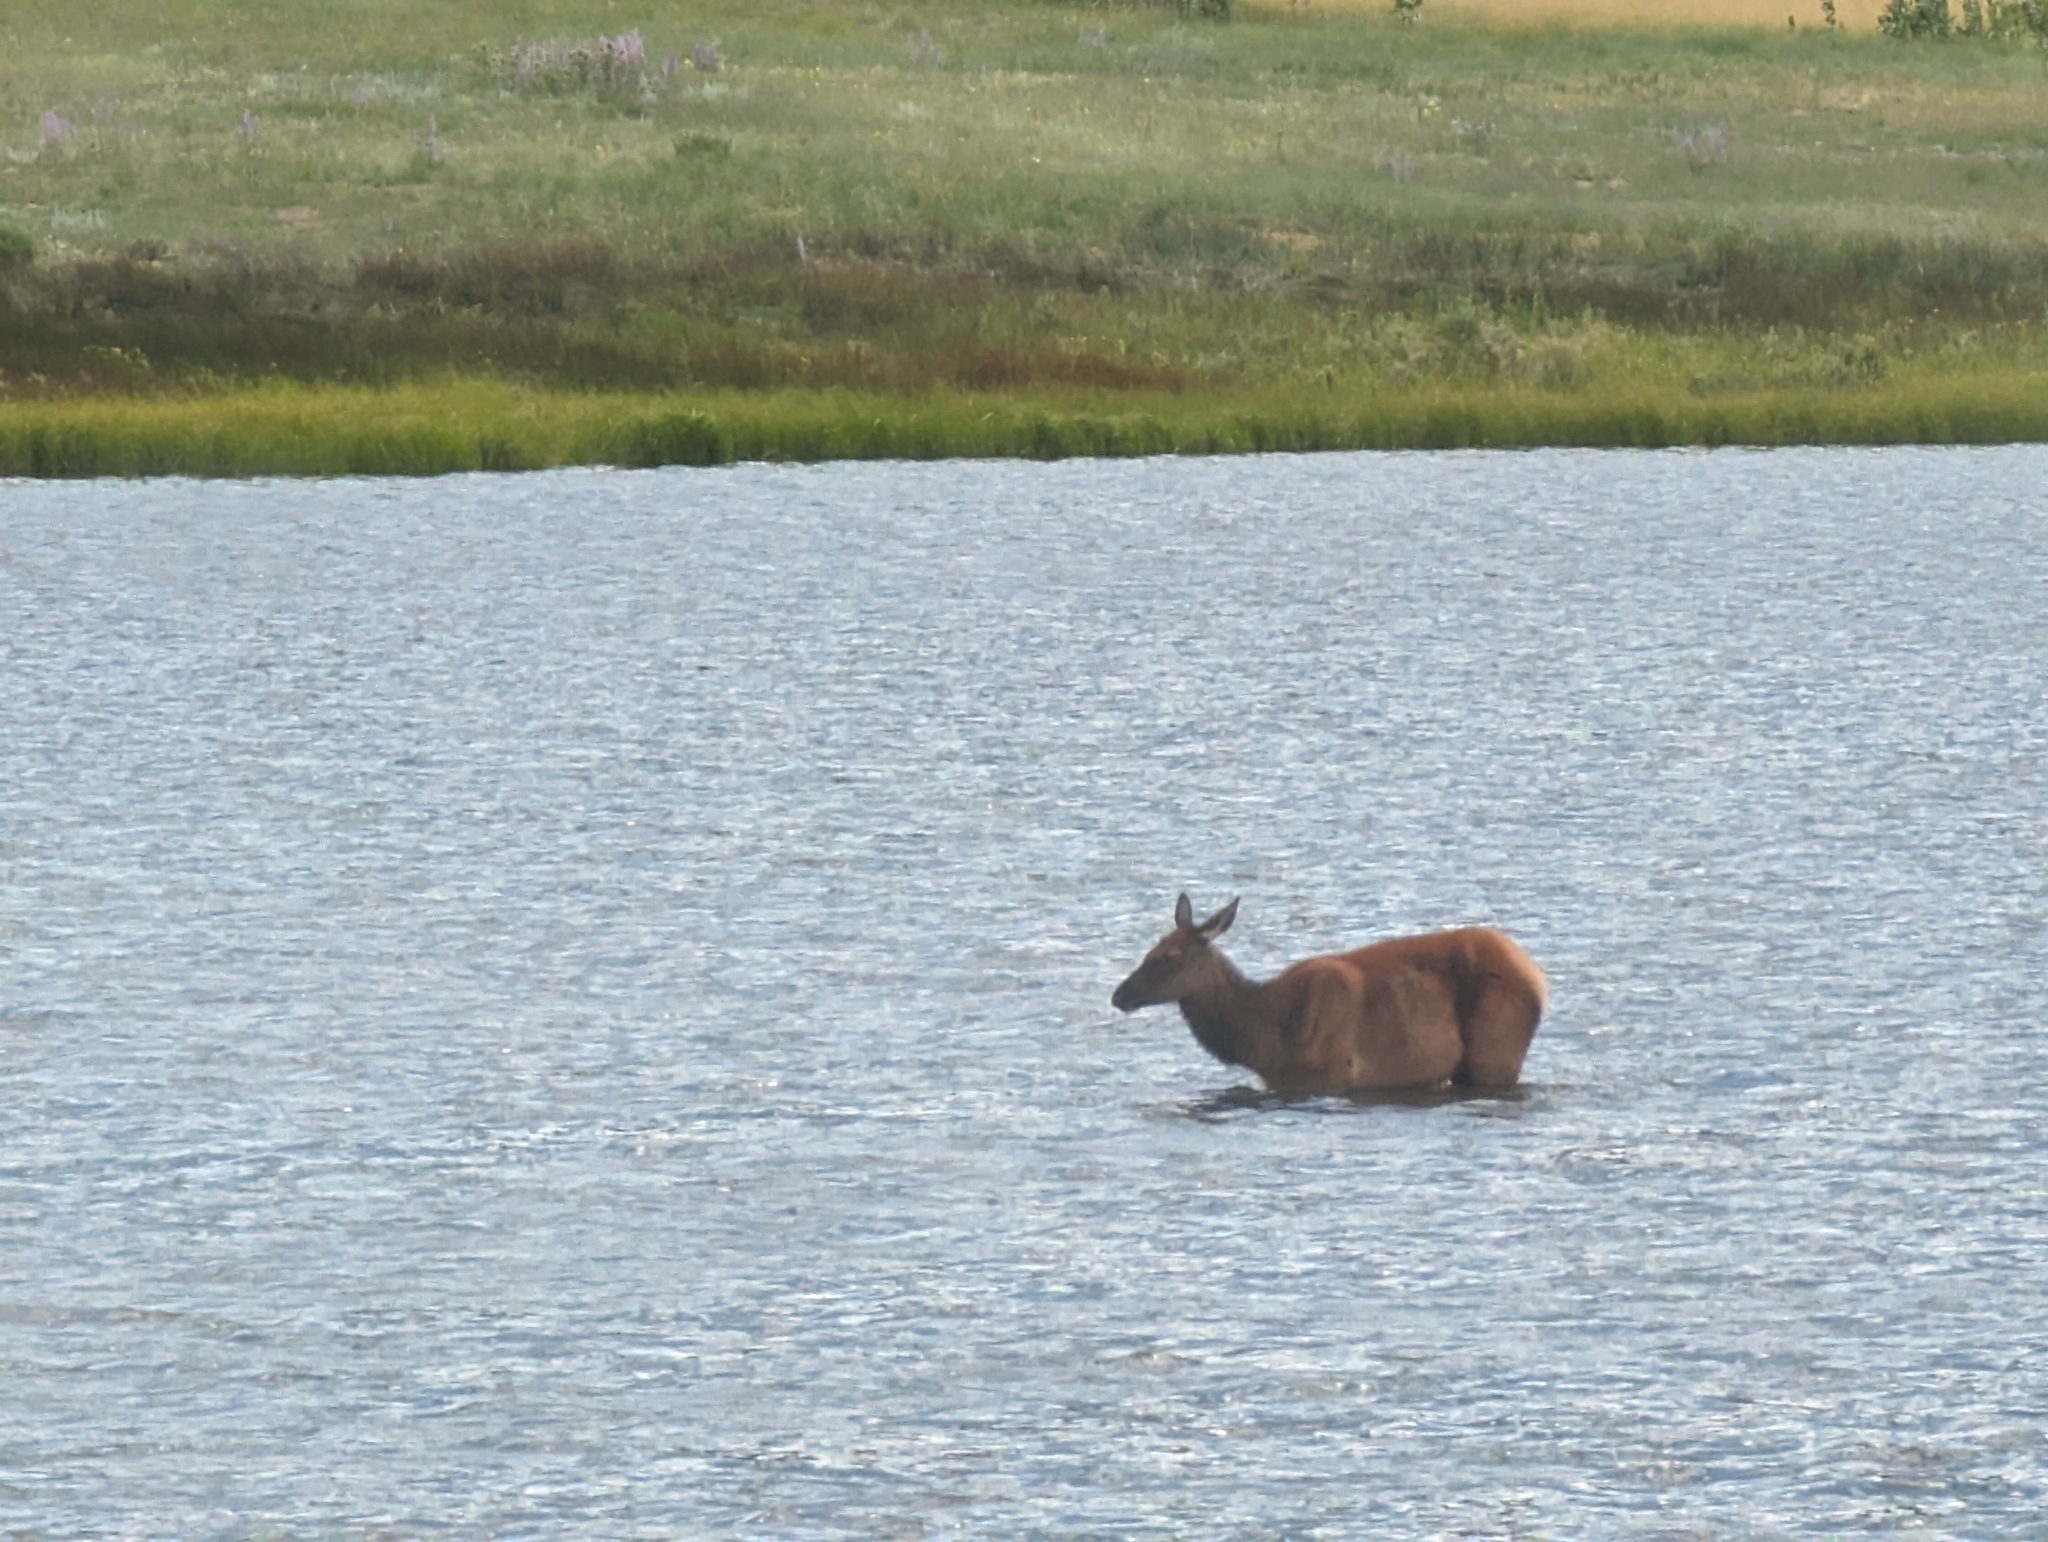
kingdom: Animalia
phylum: Chordata
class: Mammalia
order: Artiodactyla
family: Cervidae
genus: Cervus
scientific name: Cervus elaphus
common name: Red deer
